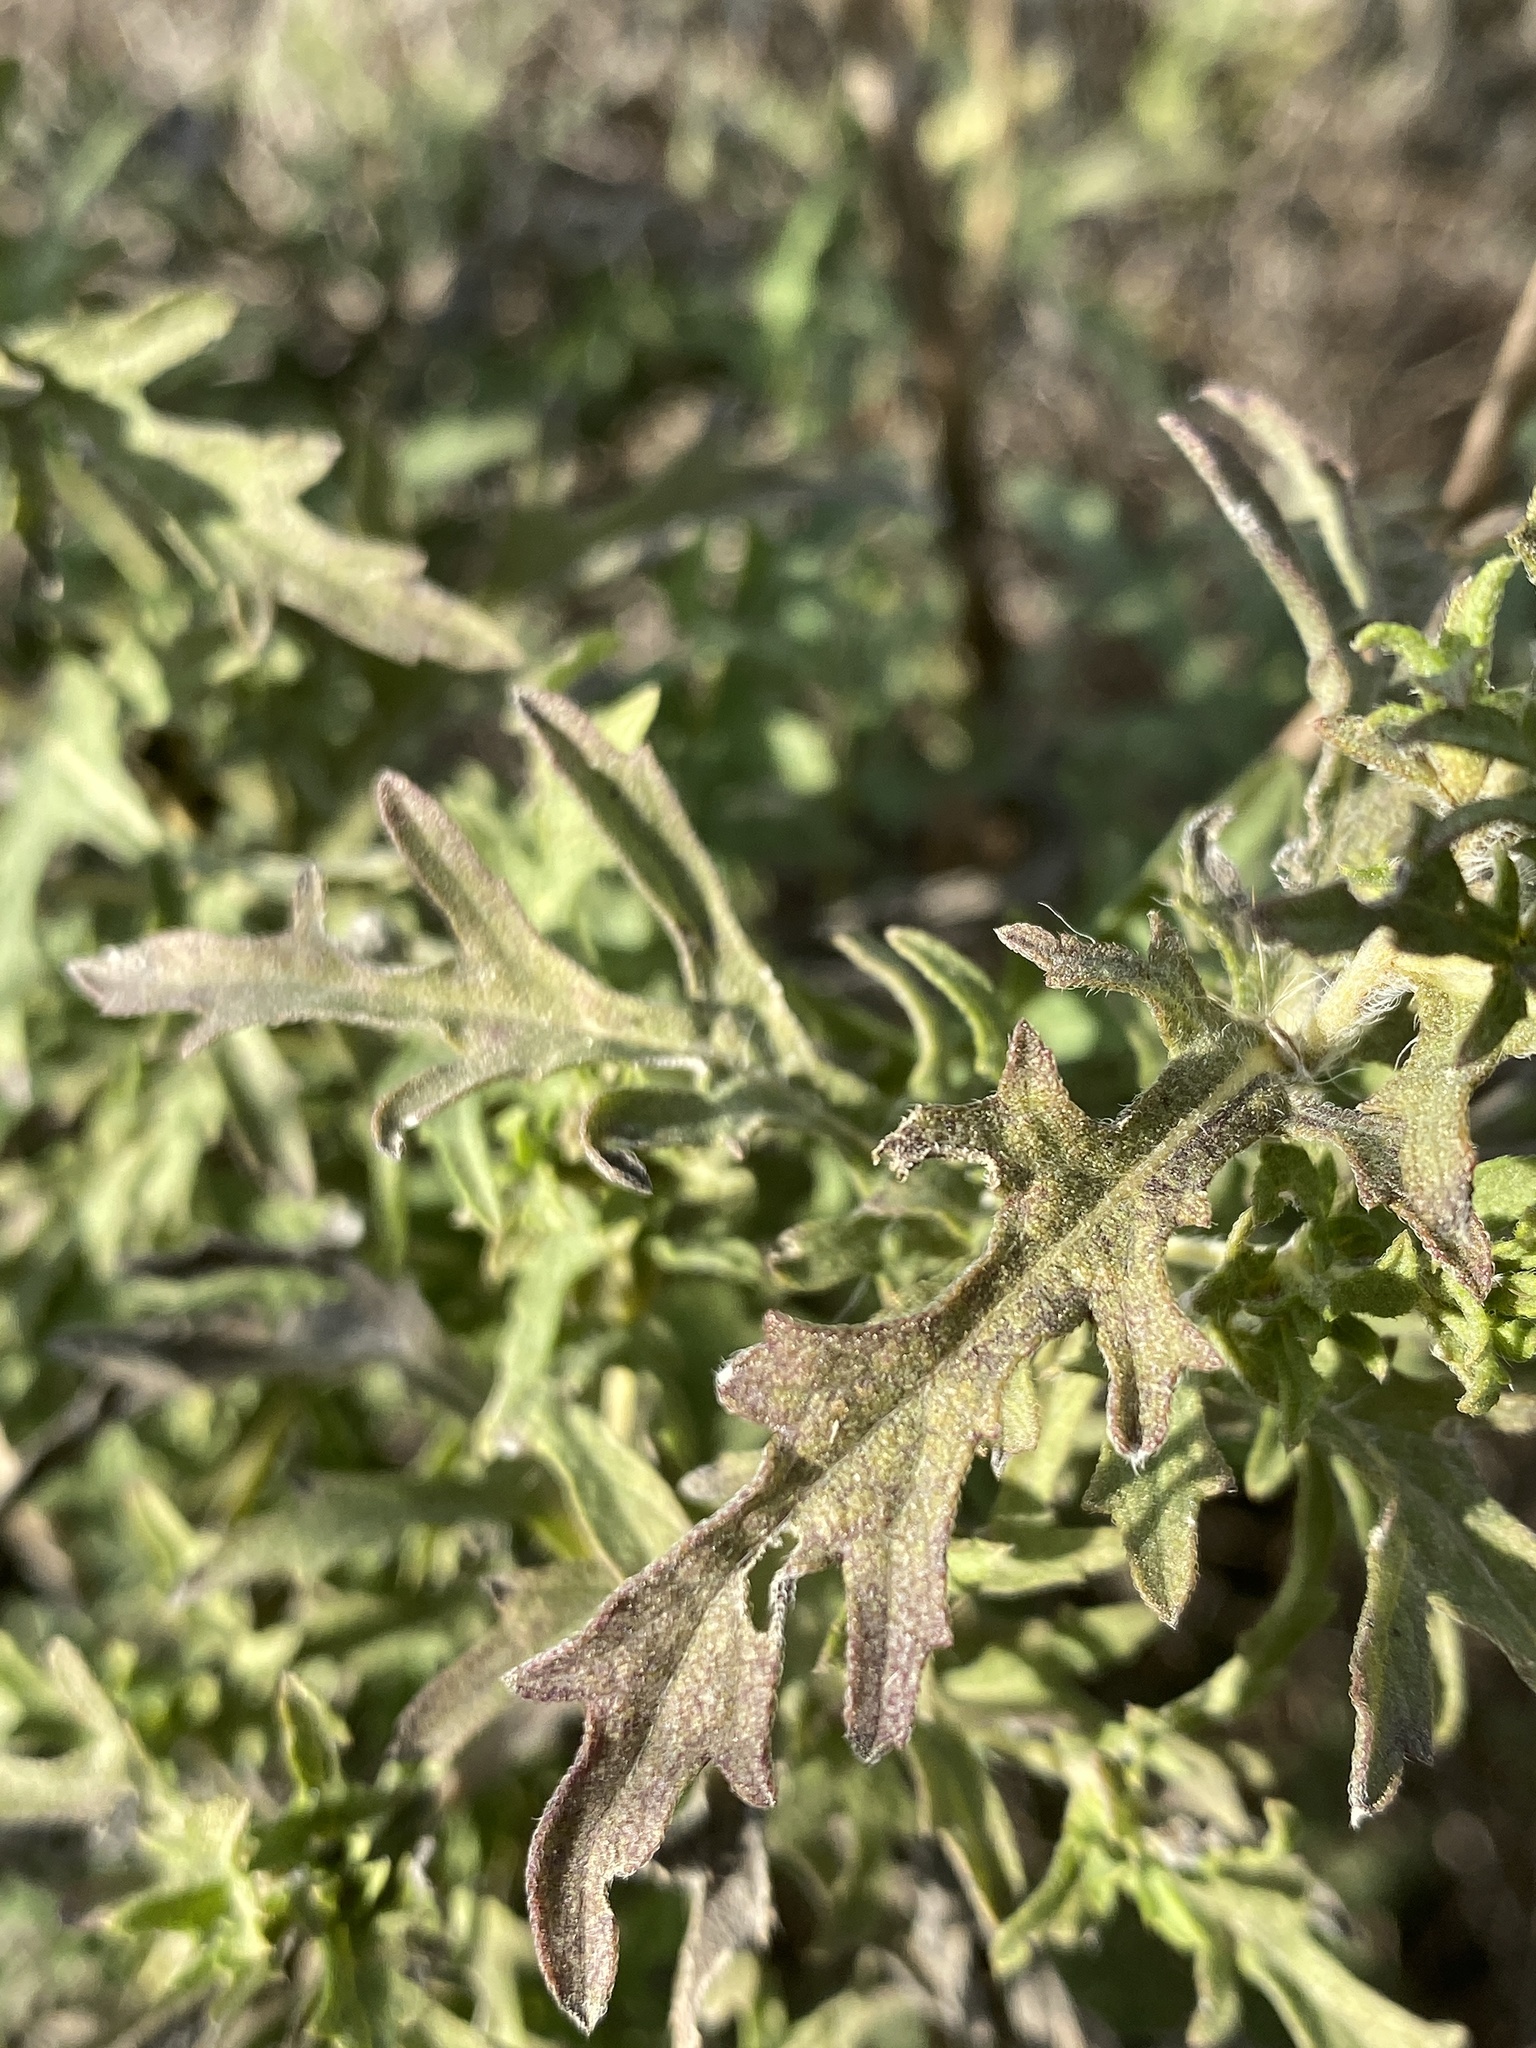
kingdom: Plantae
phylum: Tracheophyta
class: Magnoliopsida
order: Asterales
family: Asteraceae
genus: Ambrosia
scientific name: Ambrosia psilostachya
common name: Perennial ragweed
